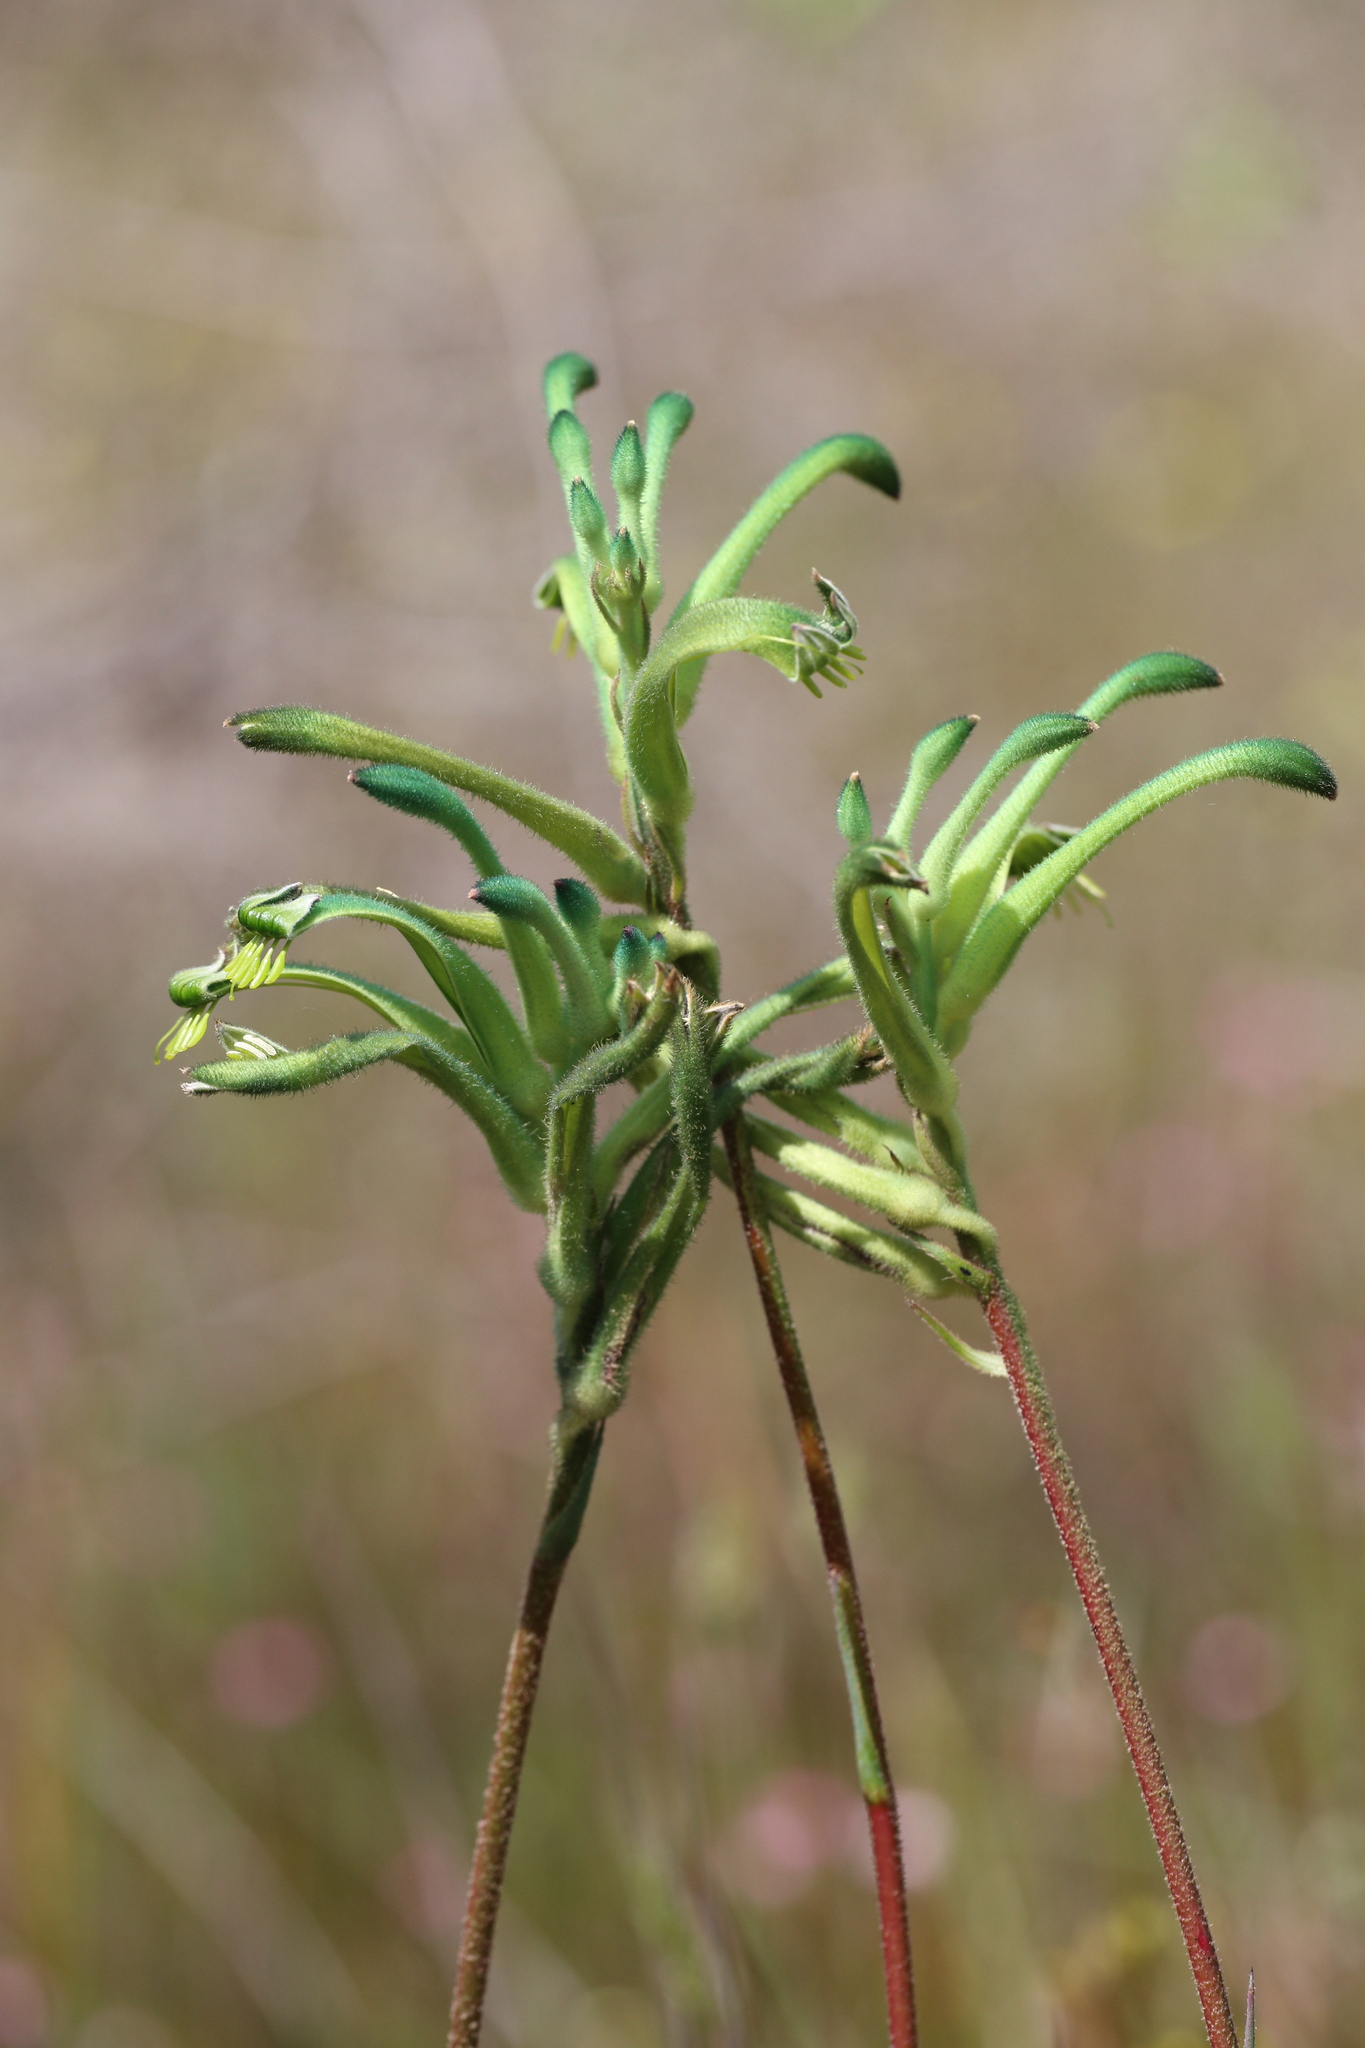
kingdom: Plantae
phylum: Tracheophyta
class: Liliopsida
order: Commelinales
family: Haemodoraceae
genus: Anigozanthos
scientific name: Anigozanthos viridis
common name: Green kangaroo-paw
